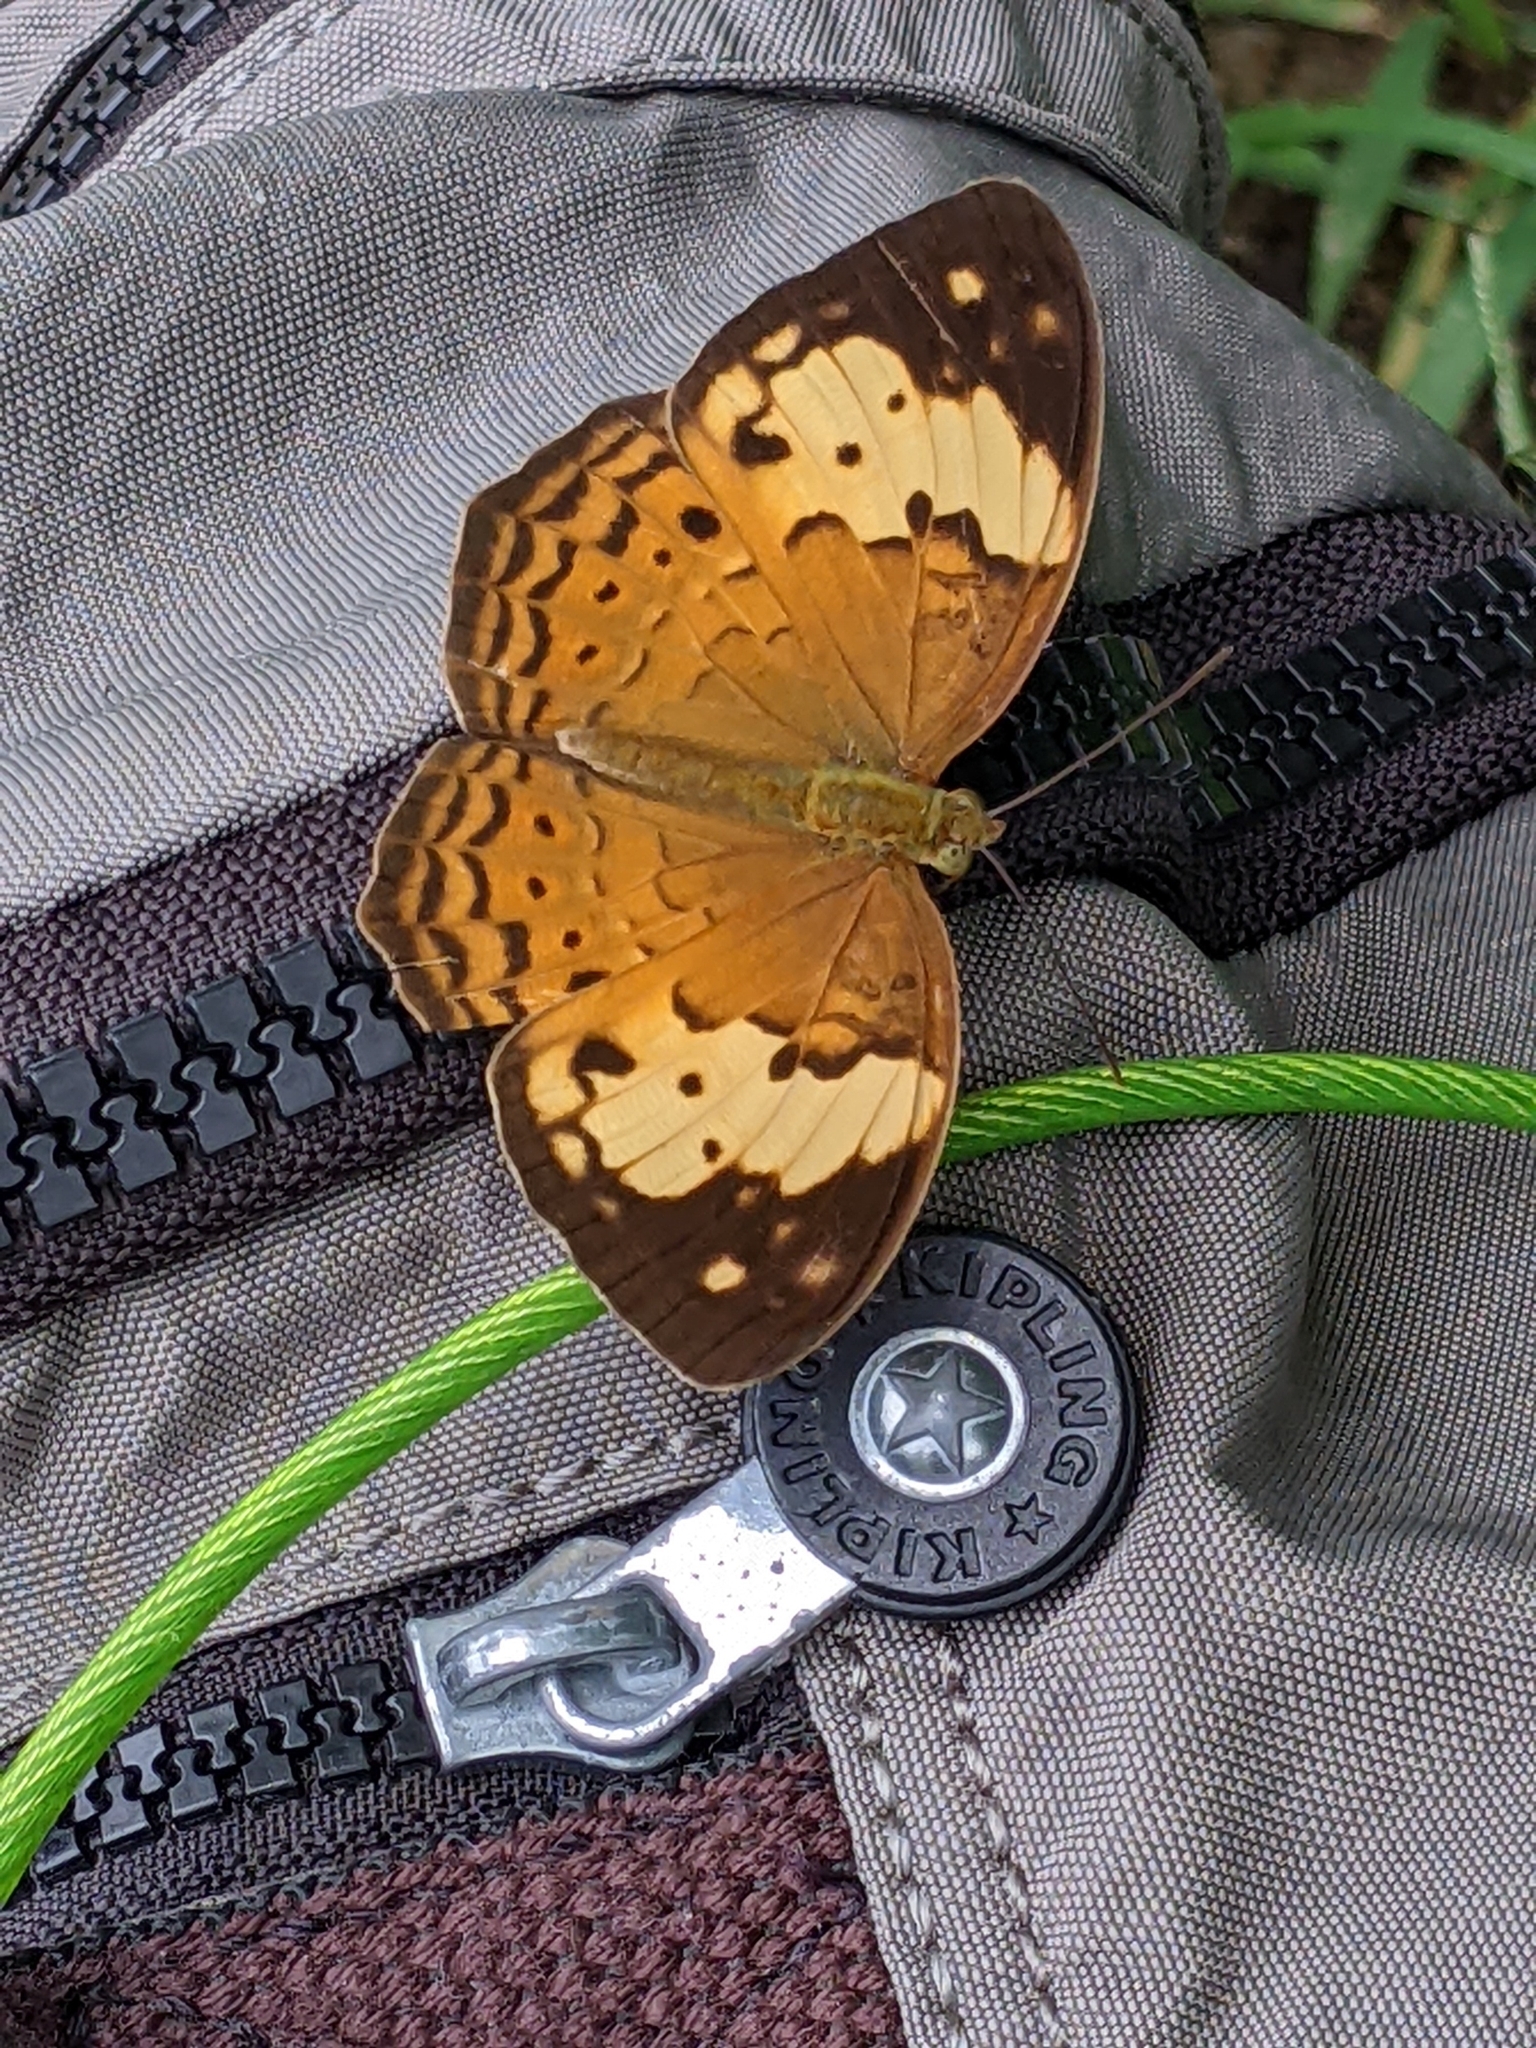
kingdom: Animalia
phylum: Arthropoda
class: Insecta
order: Lepidoptera
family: Nymphalidae
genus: Cupha
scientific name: Cupha erymanthis
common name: Rustic
